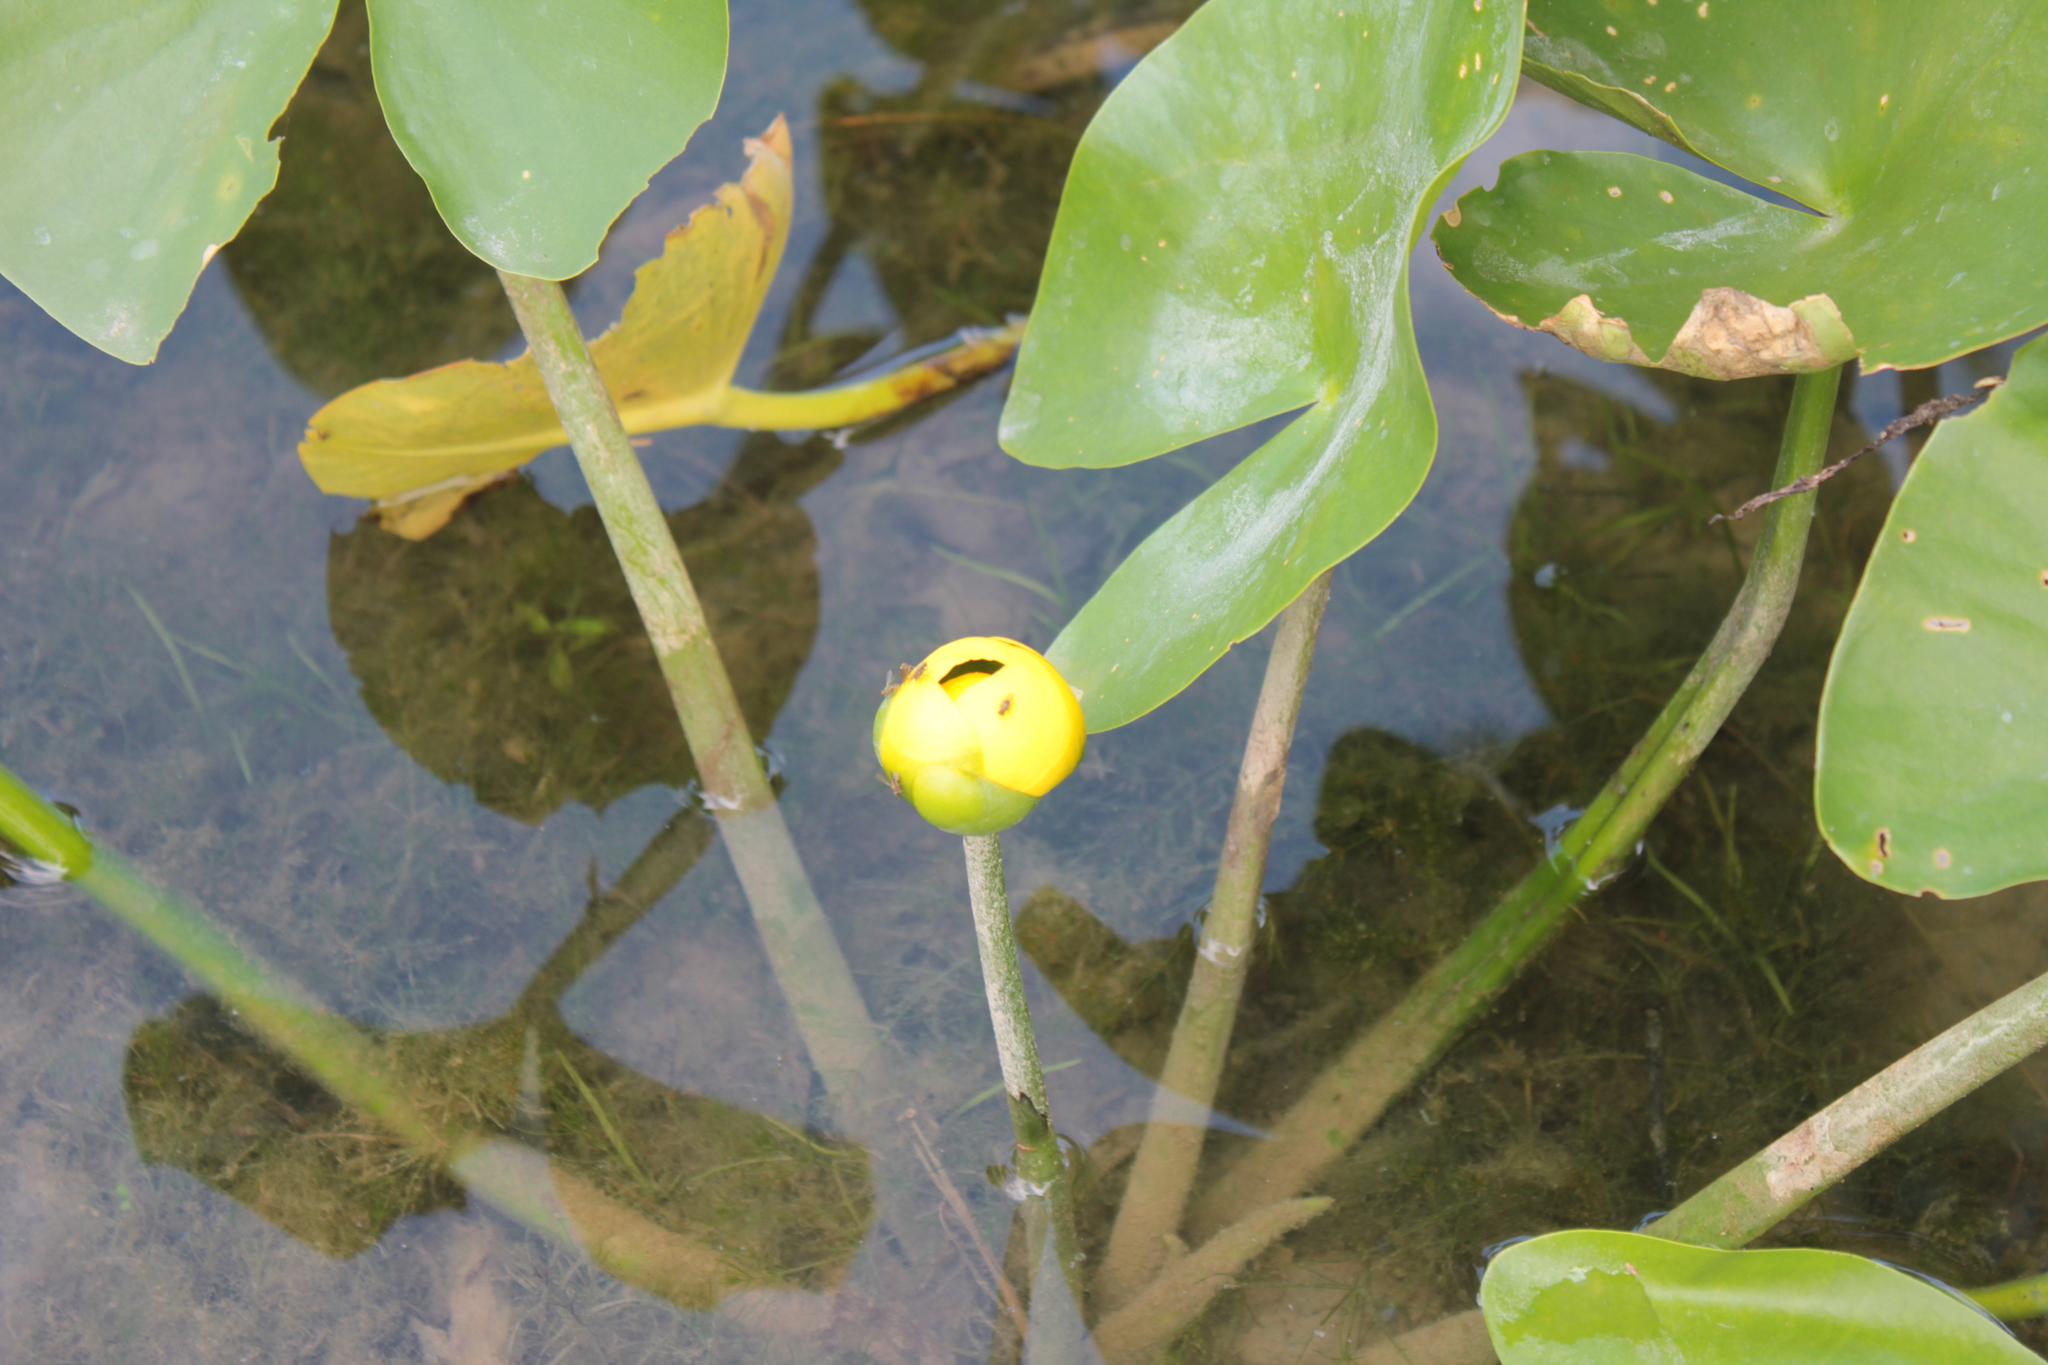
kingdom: Plantae
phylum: Tracheophyta
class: Magnoliopsida
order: Nymphaeales
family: Nymphaeaceae
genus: Nuphar
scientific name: Nuphar advena
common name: Spatter-dock
